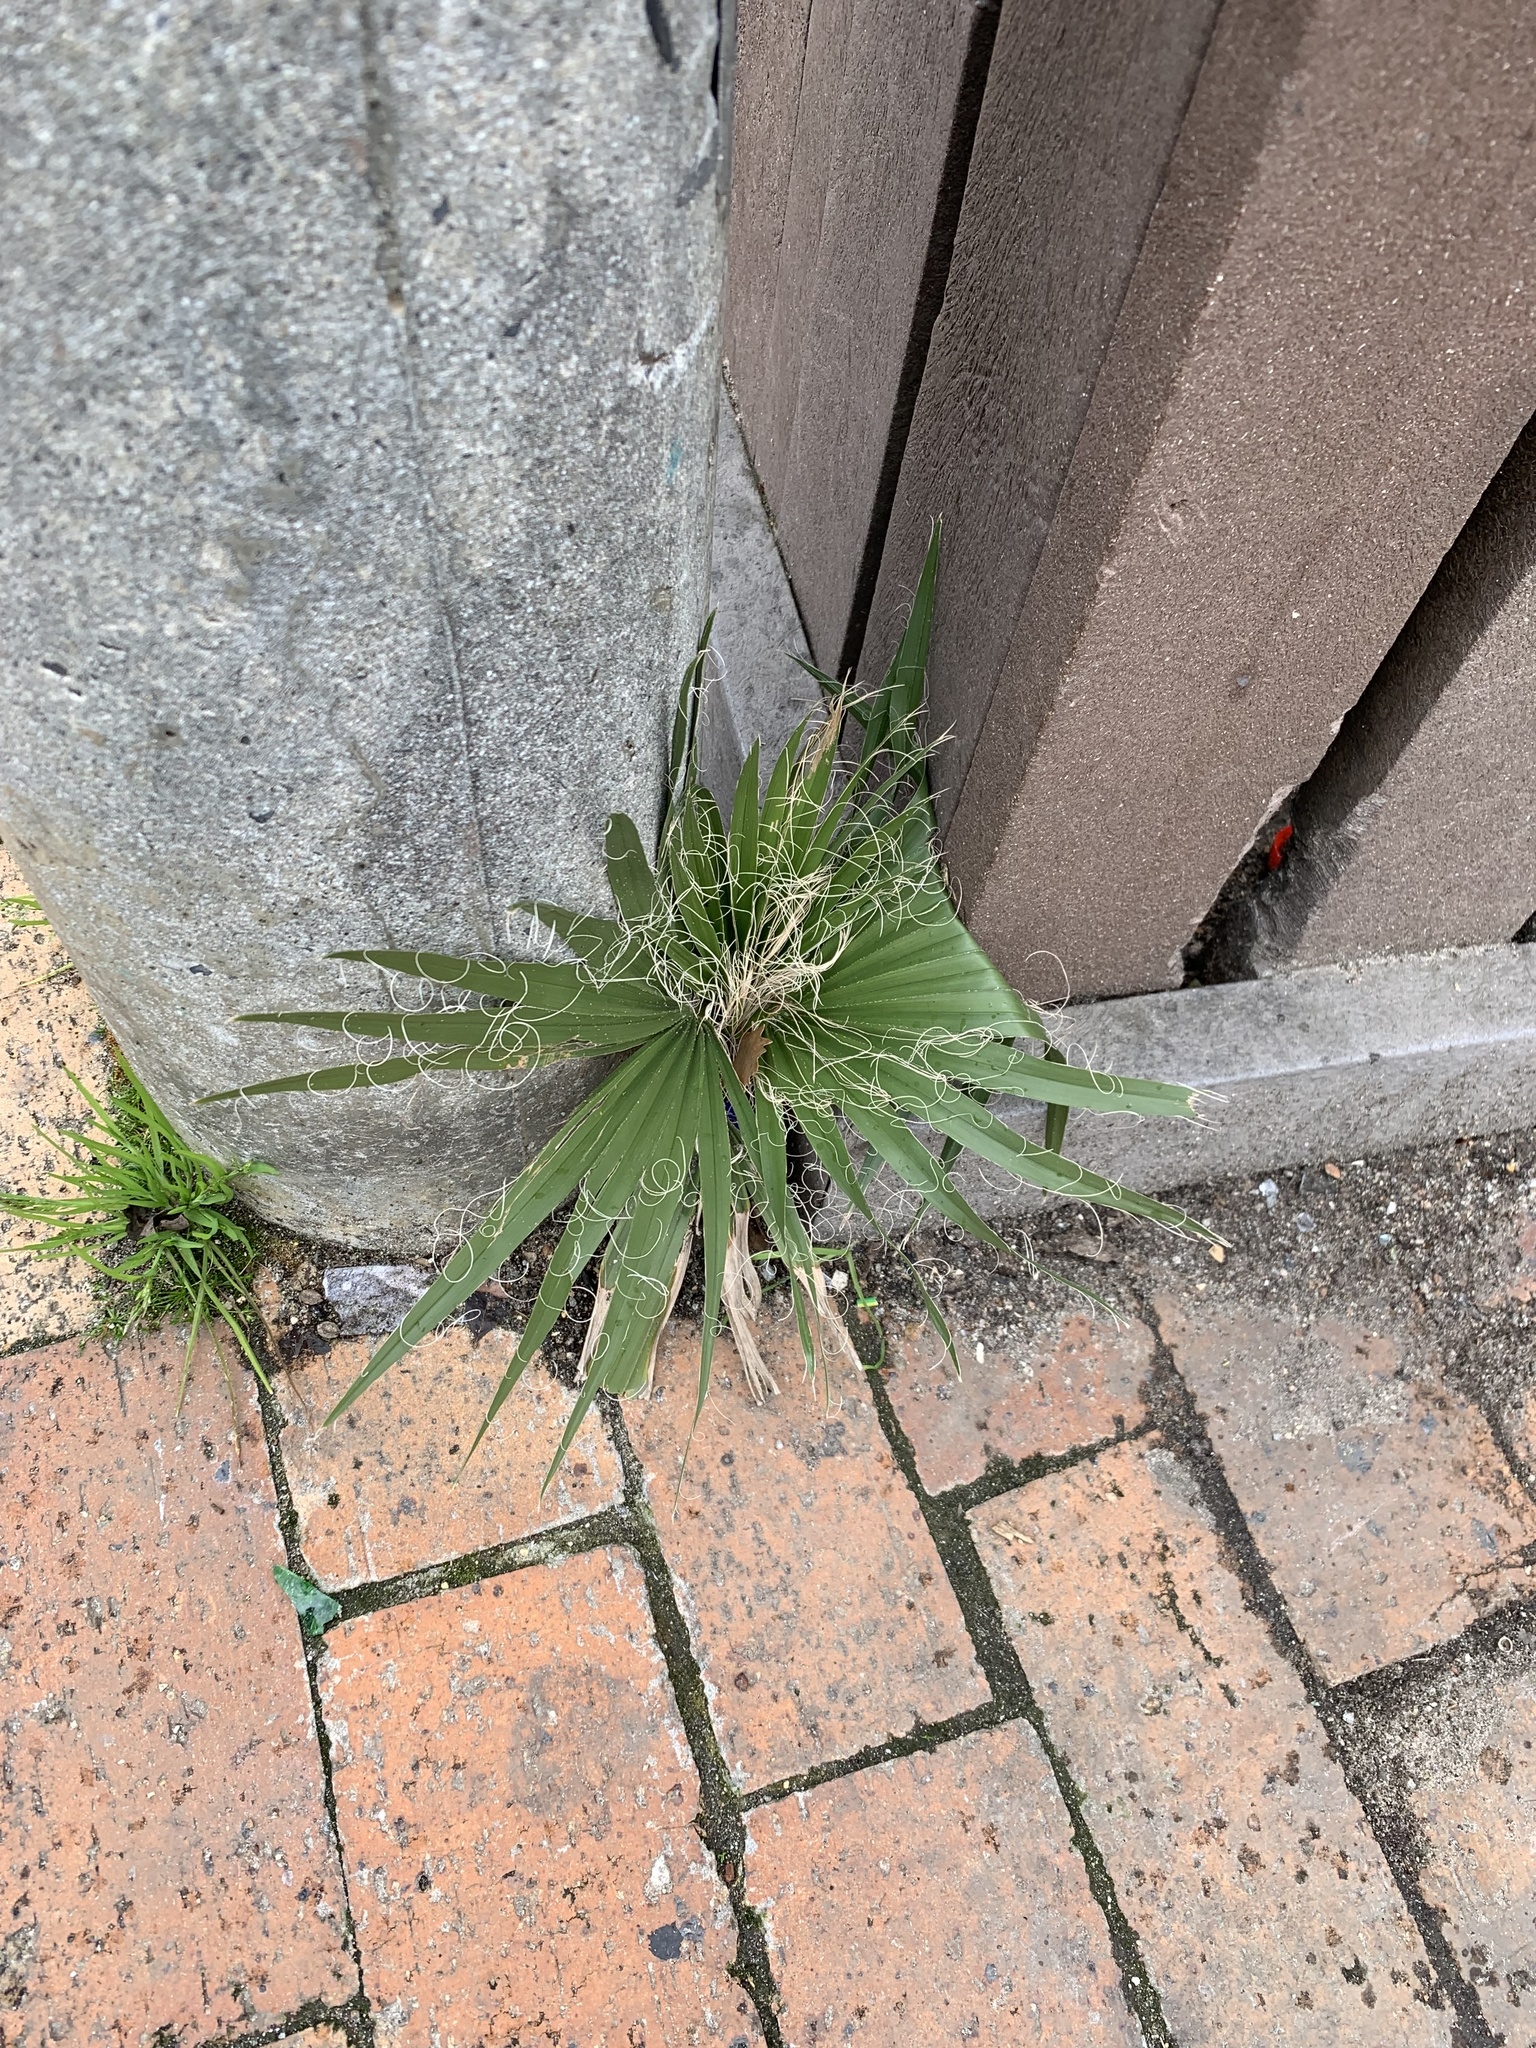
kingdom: Plantae
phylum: Tracheophyta
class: Liliopsida
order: Arecales
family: Arecaceae
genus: Washingtonia
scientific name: Washingtonia robusta
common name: Mexican fan palm
